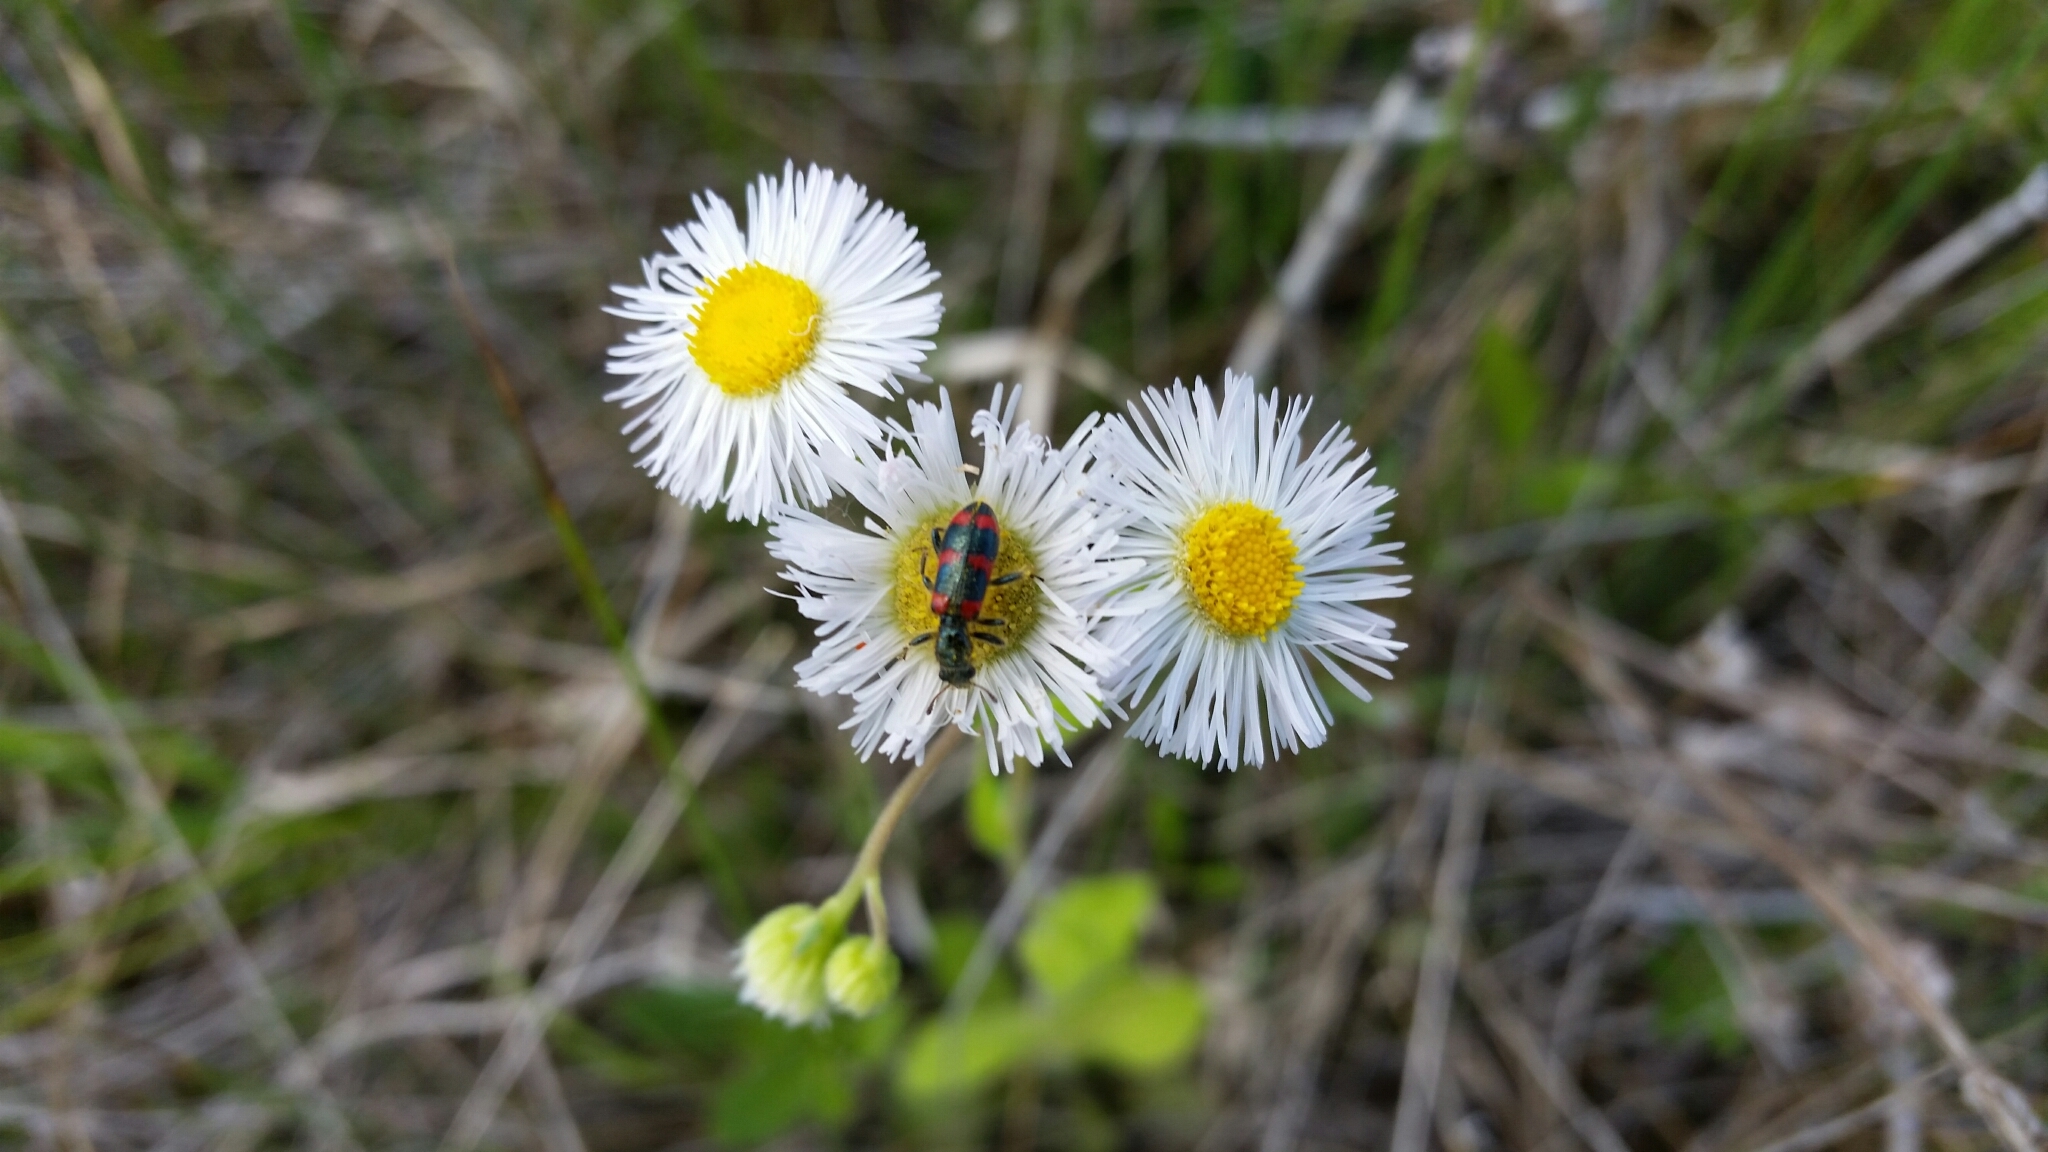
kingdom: Animalia
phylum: Arthropoda
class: Insecta
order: Coleoptera
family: Cleridae
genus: Trichodes
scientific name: Trichodes nutalli
